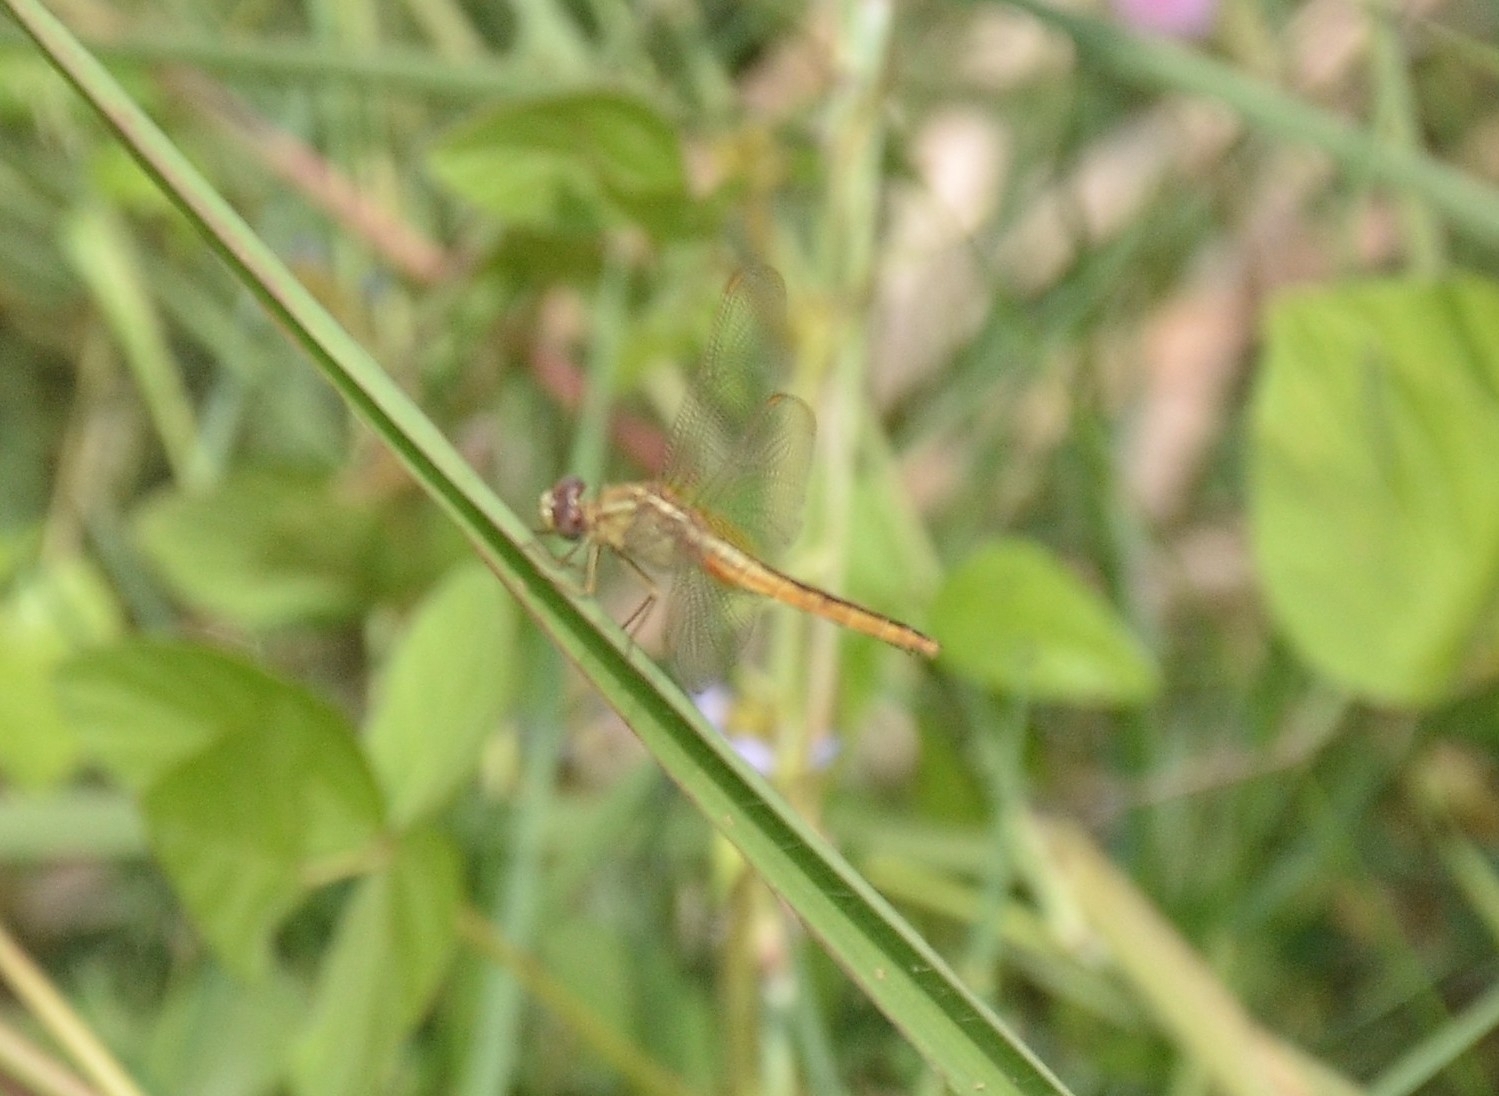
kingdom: Animalia
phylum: Arthropoda
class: Insecta
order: Odonata
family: Libellulidae
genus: Crocothemis
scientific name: Crocothemis servilia
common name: Scarlet skimmer
